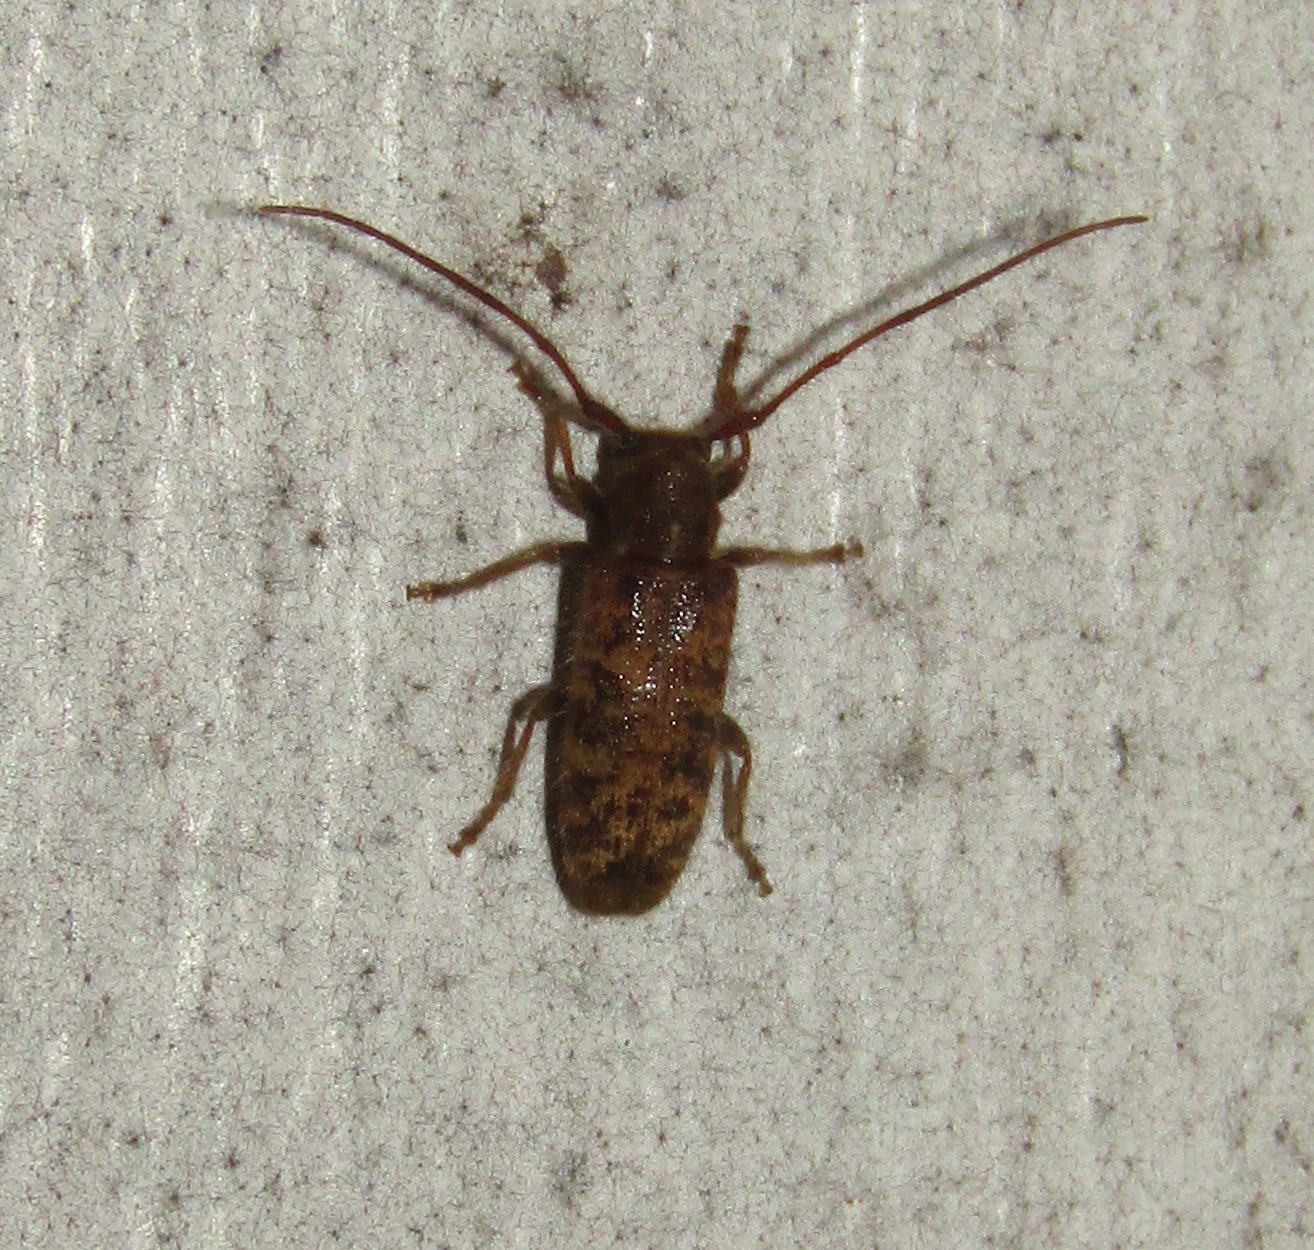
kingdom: Animalia
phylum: Arthropoda
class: Insecta
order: Coleoptera
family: Cerambycidae
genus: Eupogonius
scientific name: Eupogonius pauper
